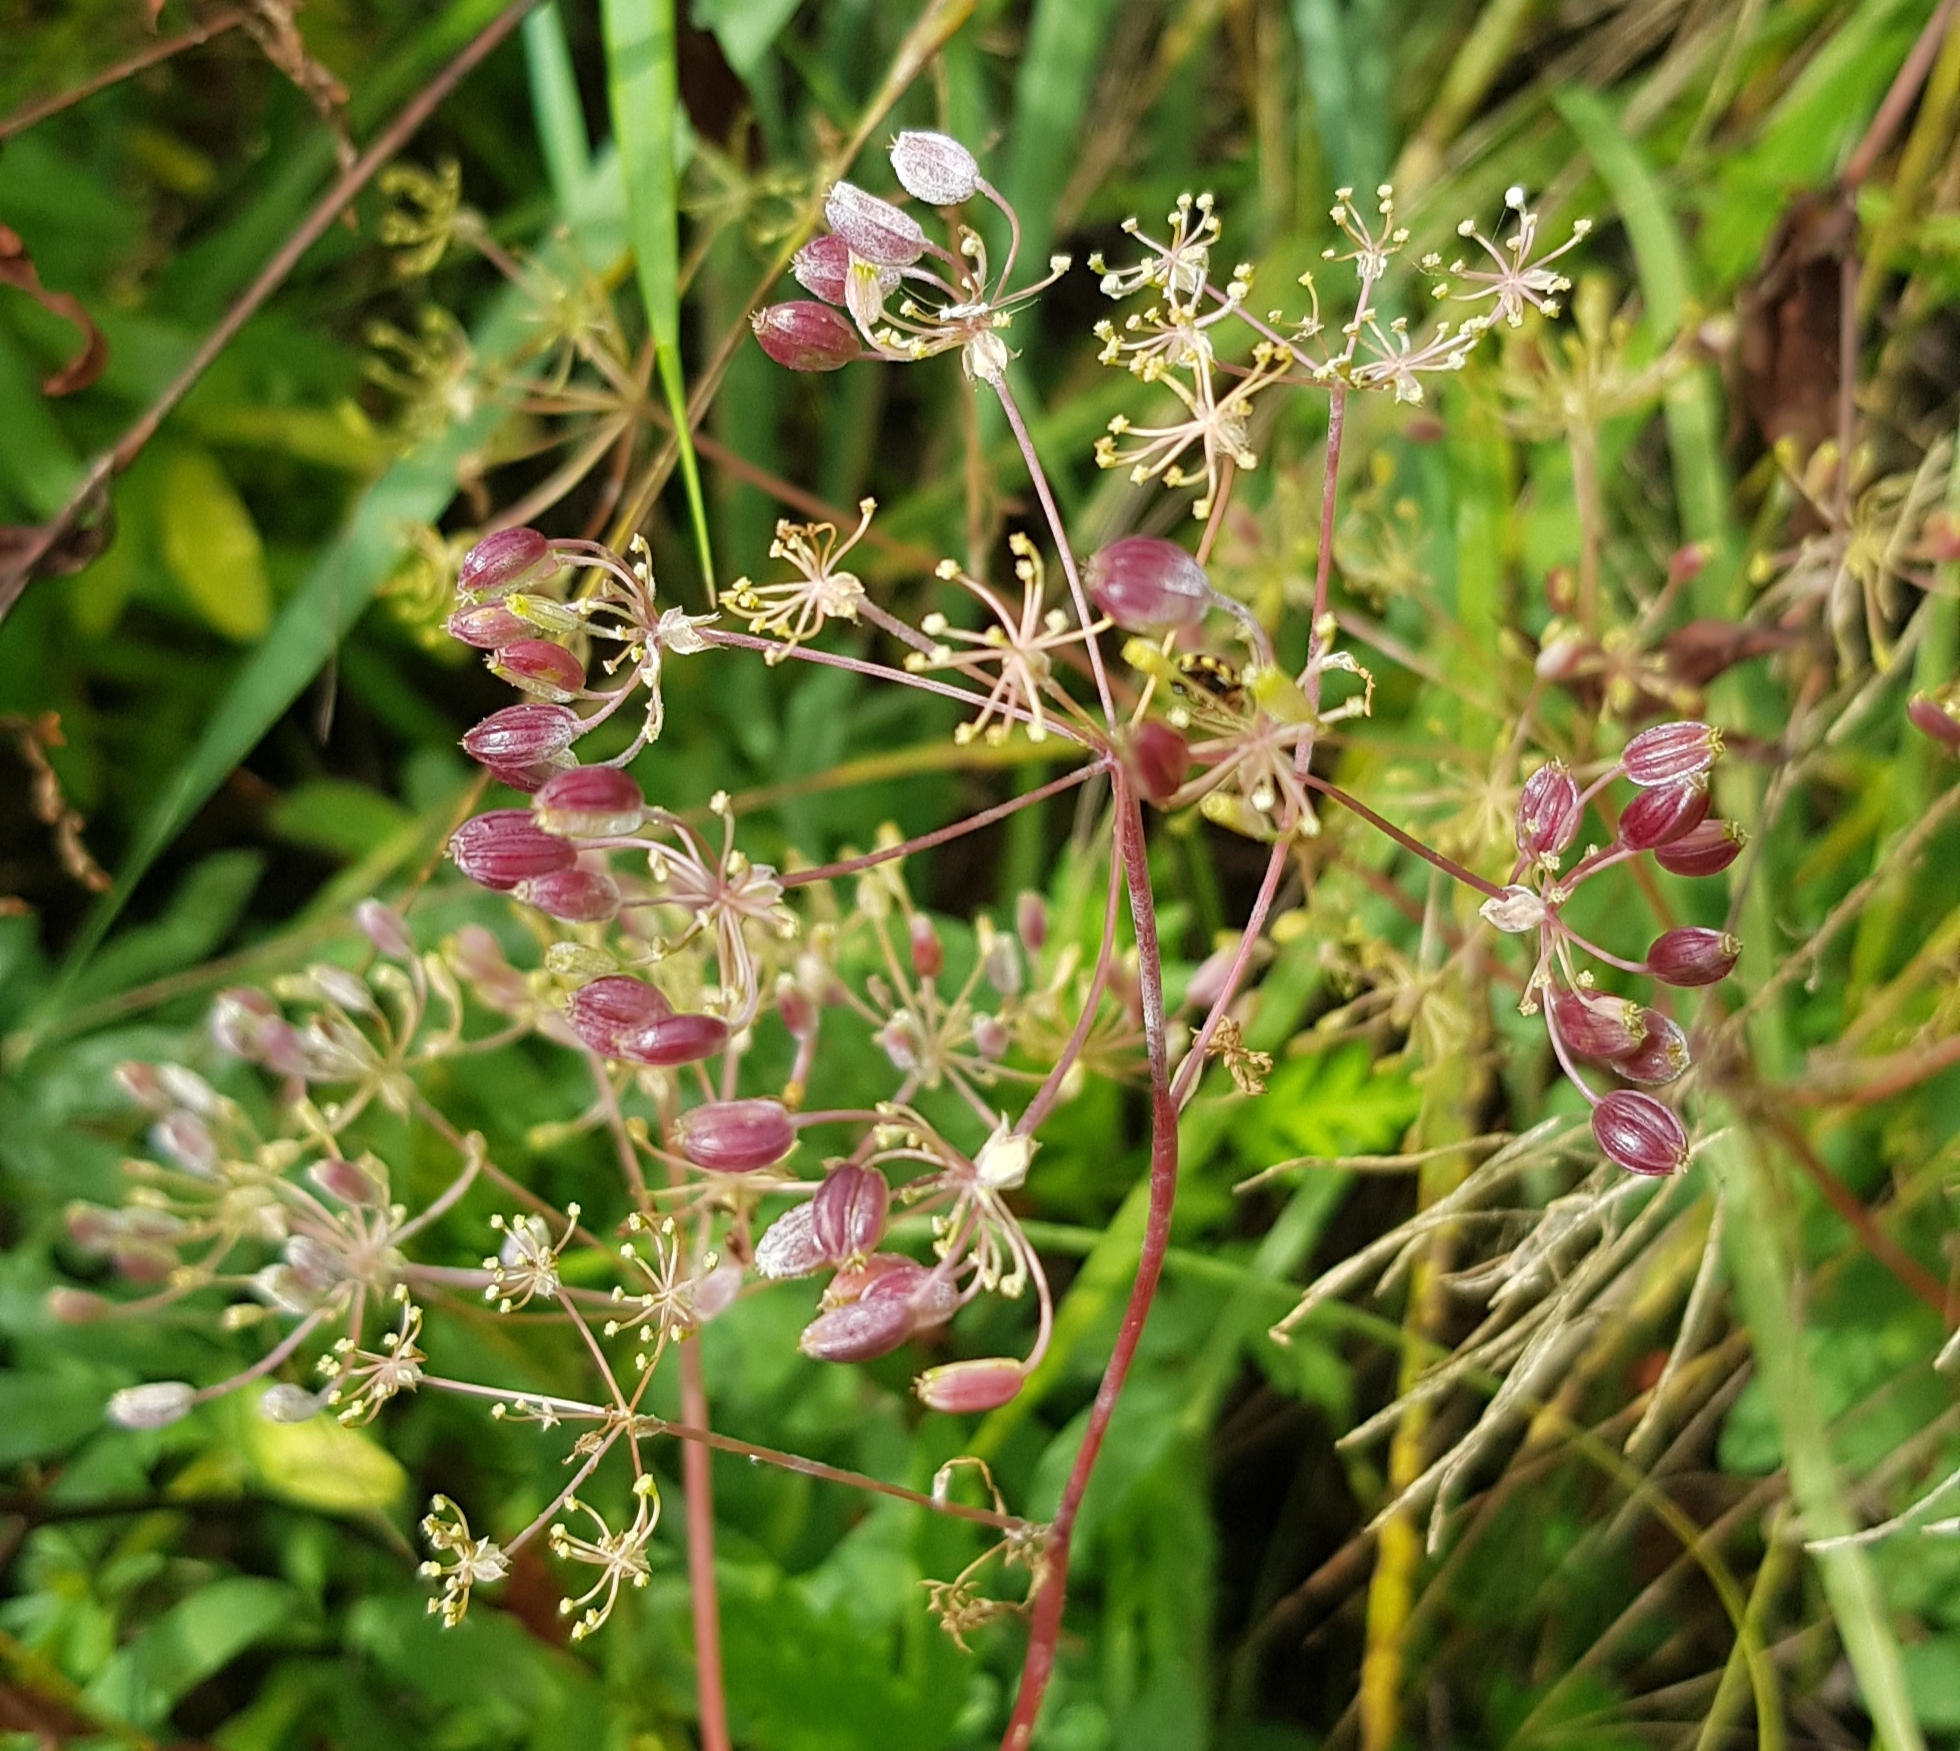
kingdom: Plantae
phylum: Tracheophyta
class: Magnoliopsida
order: Apiales
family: Apiaceae
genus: Sphallerocarpus
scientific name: Sphallerocarpus gracilis
